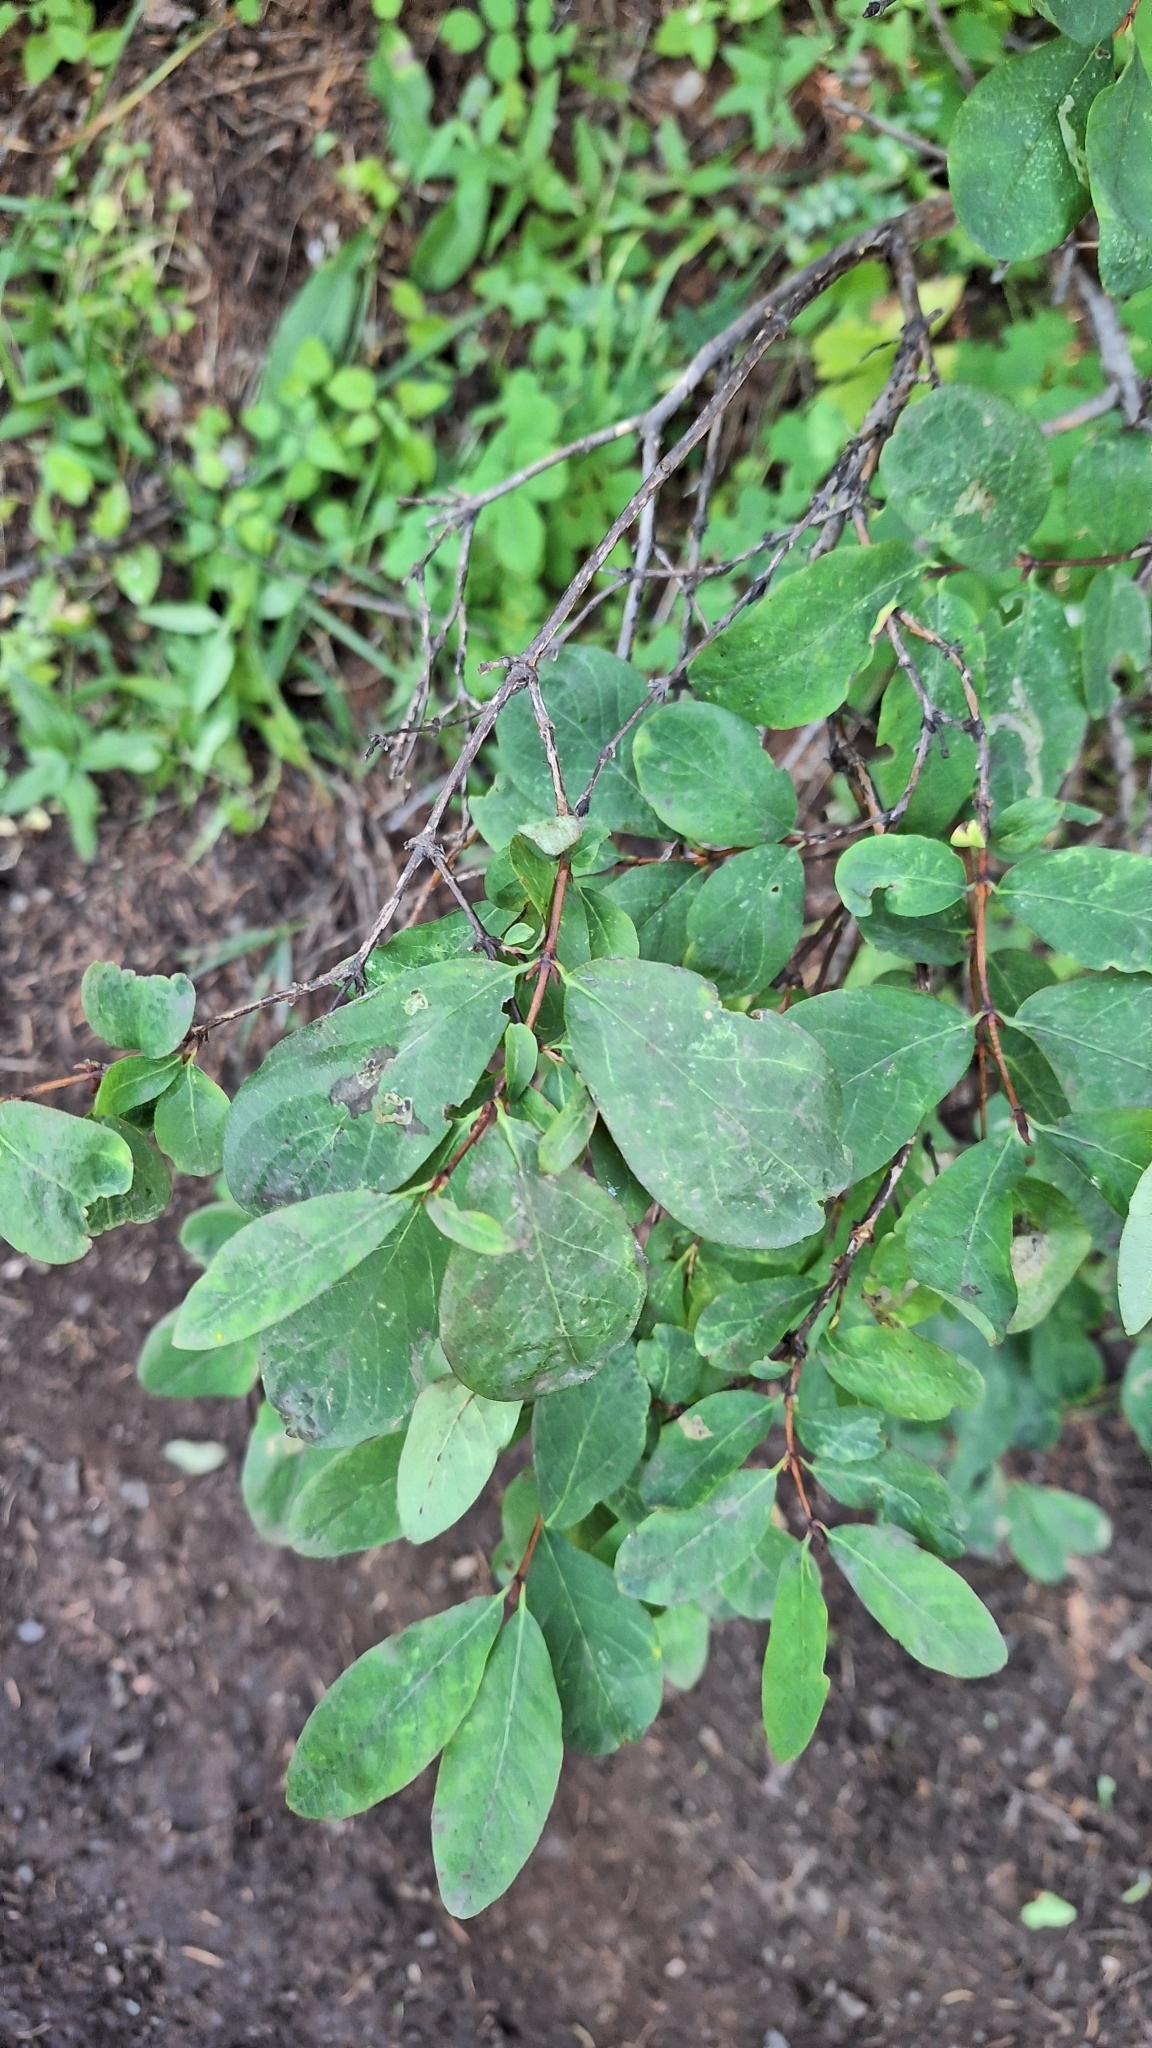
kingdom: Plantae
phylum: Tracheophyta
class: Magnoliopsida
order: Dipsacales
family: Caprifoliaceae
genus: Lonicera
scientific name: Lonicera caerulea
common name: Blue honeysuckle
